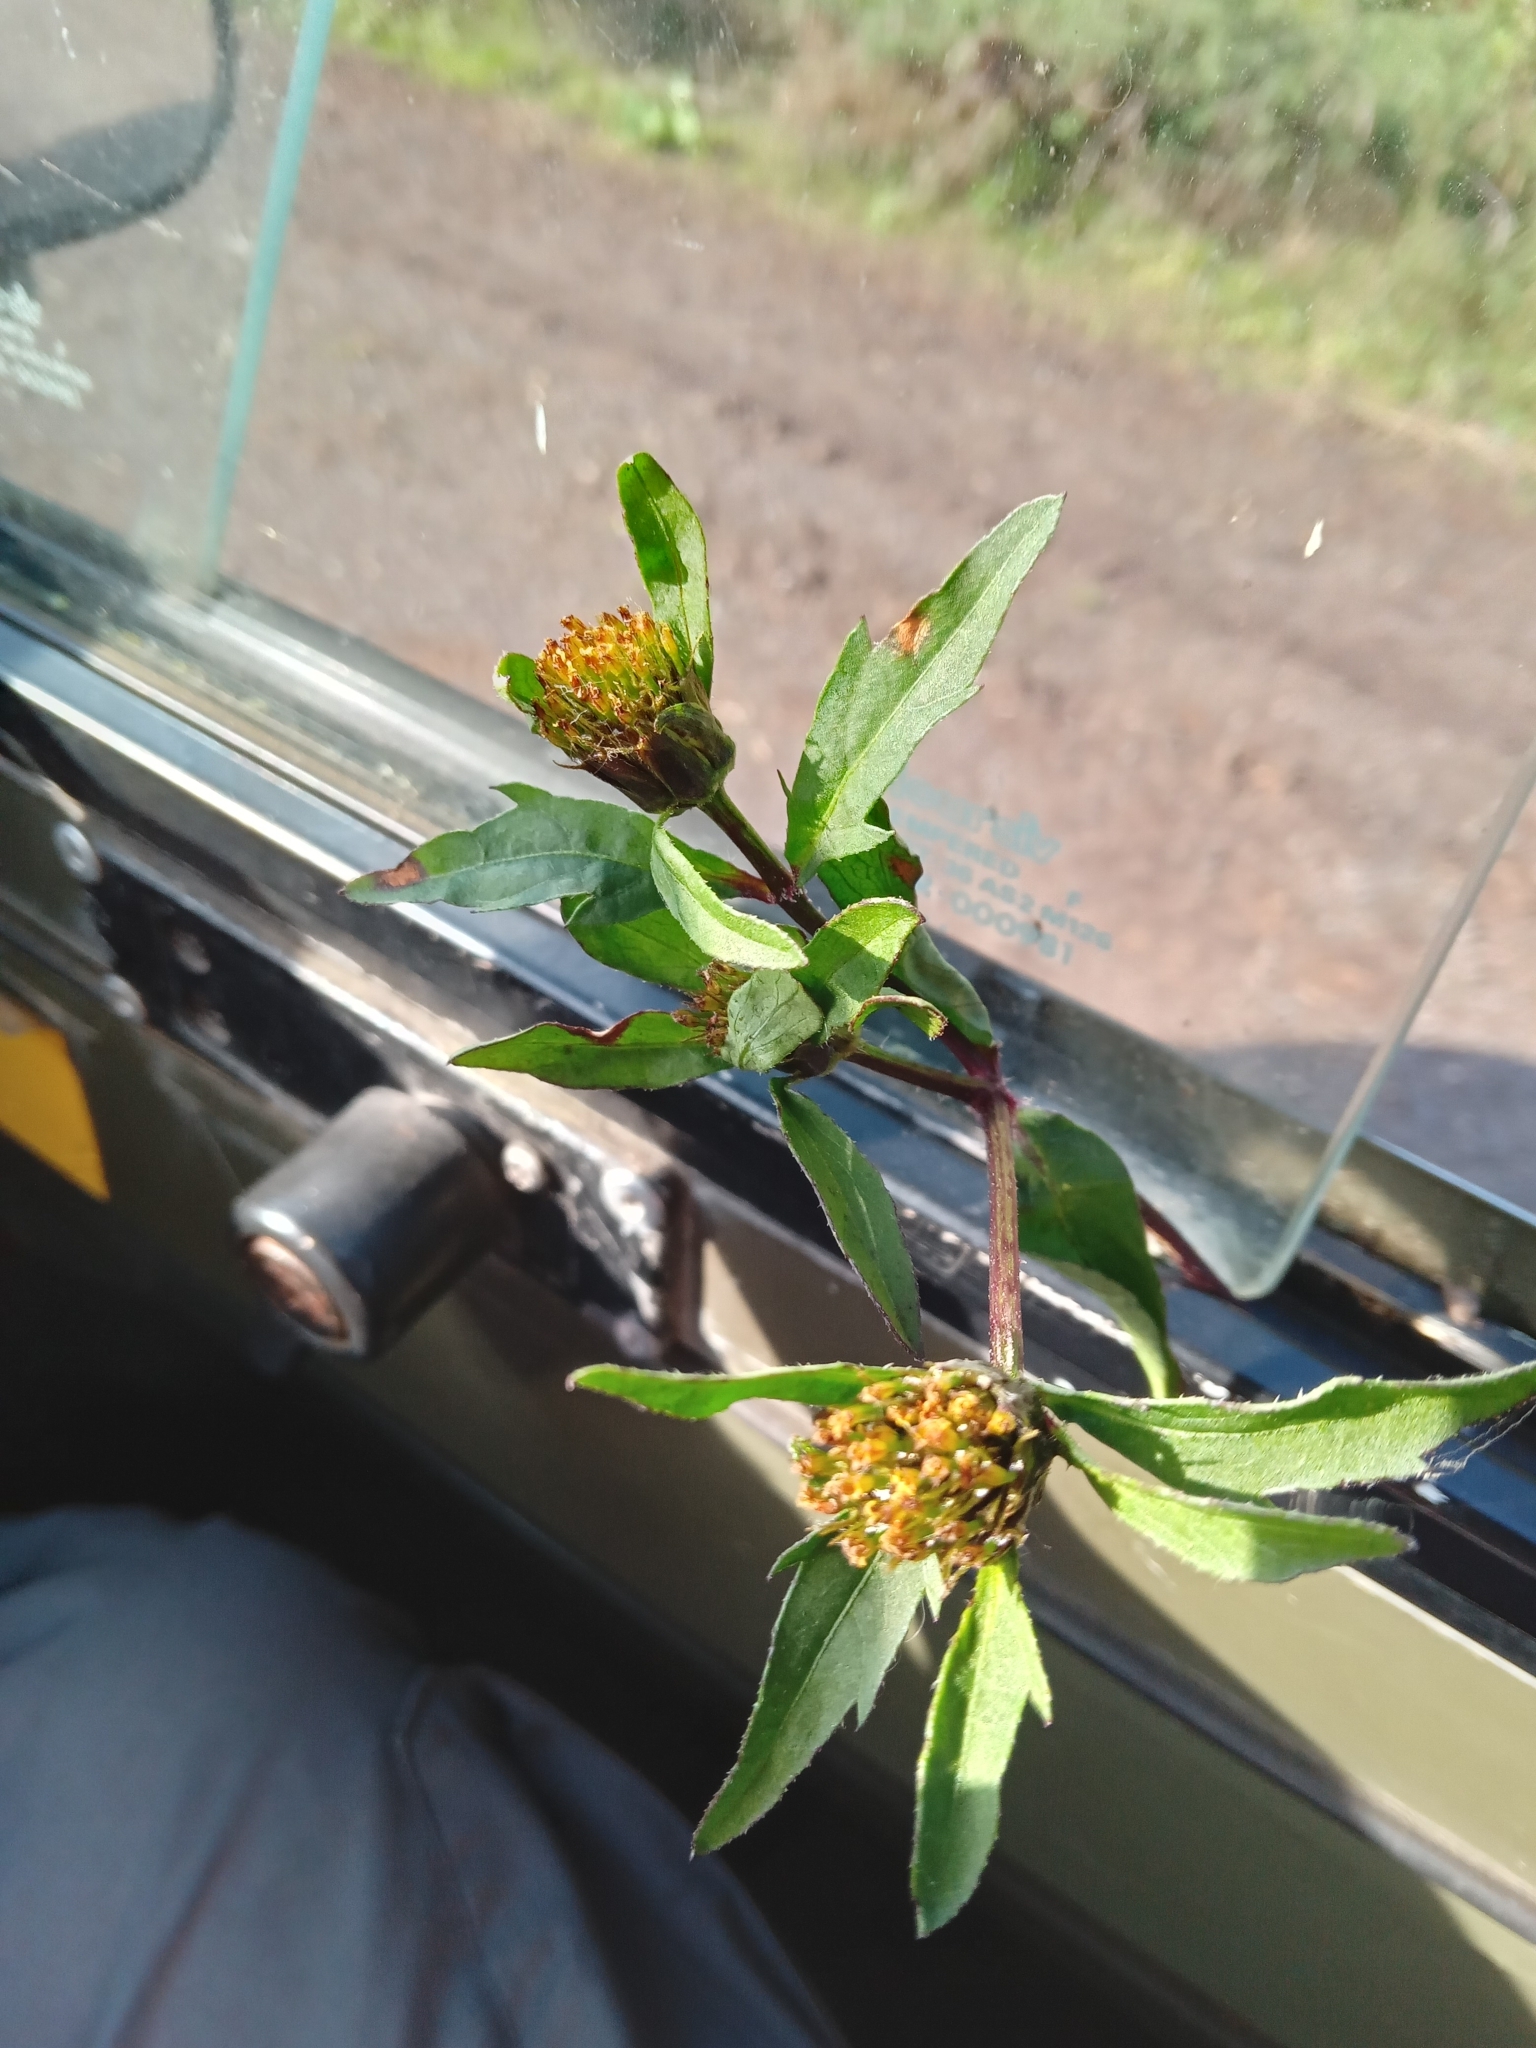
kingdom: Plantae
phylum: Tracheophyta
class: Magnoliopsida
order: Asterales
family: Asteraceae
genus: Bidens
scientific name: Bidens tripartita
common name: Trifid bur-marigold
